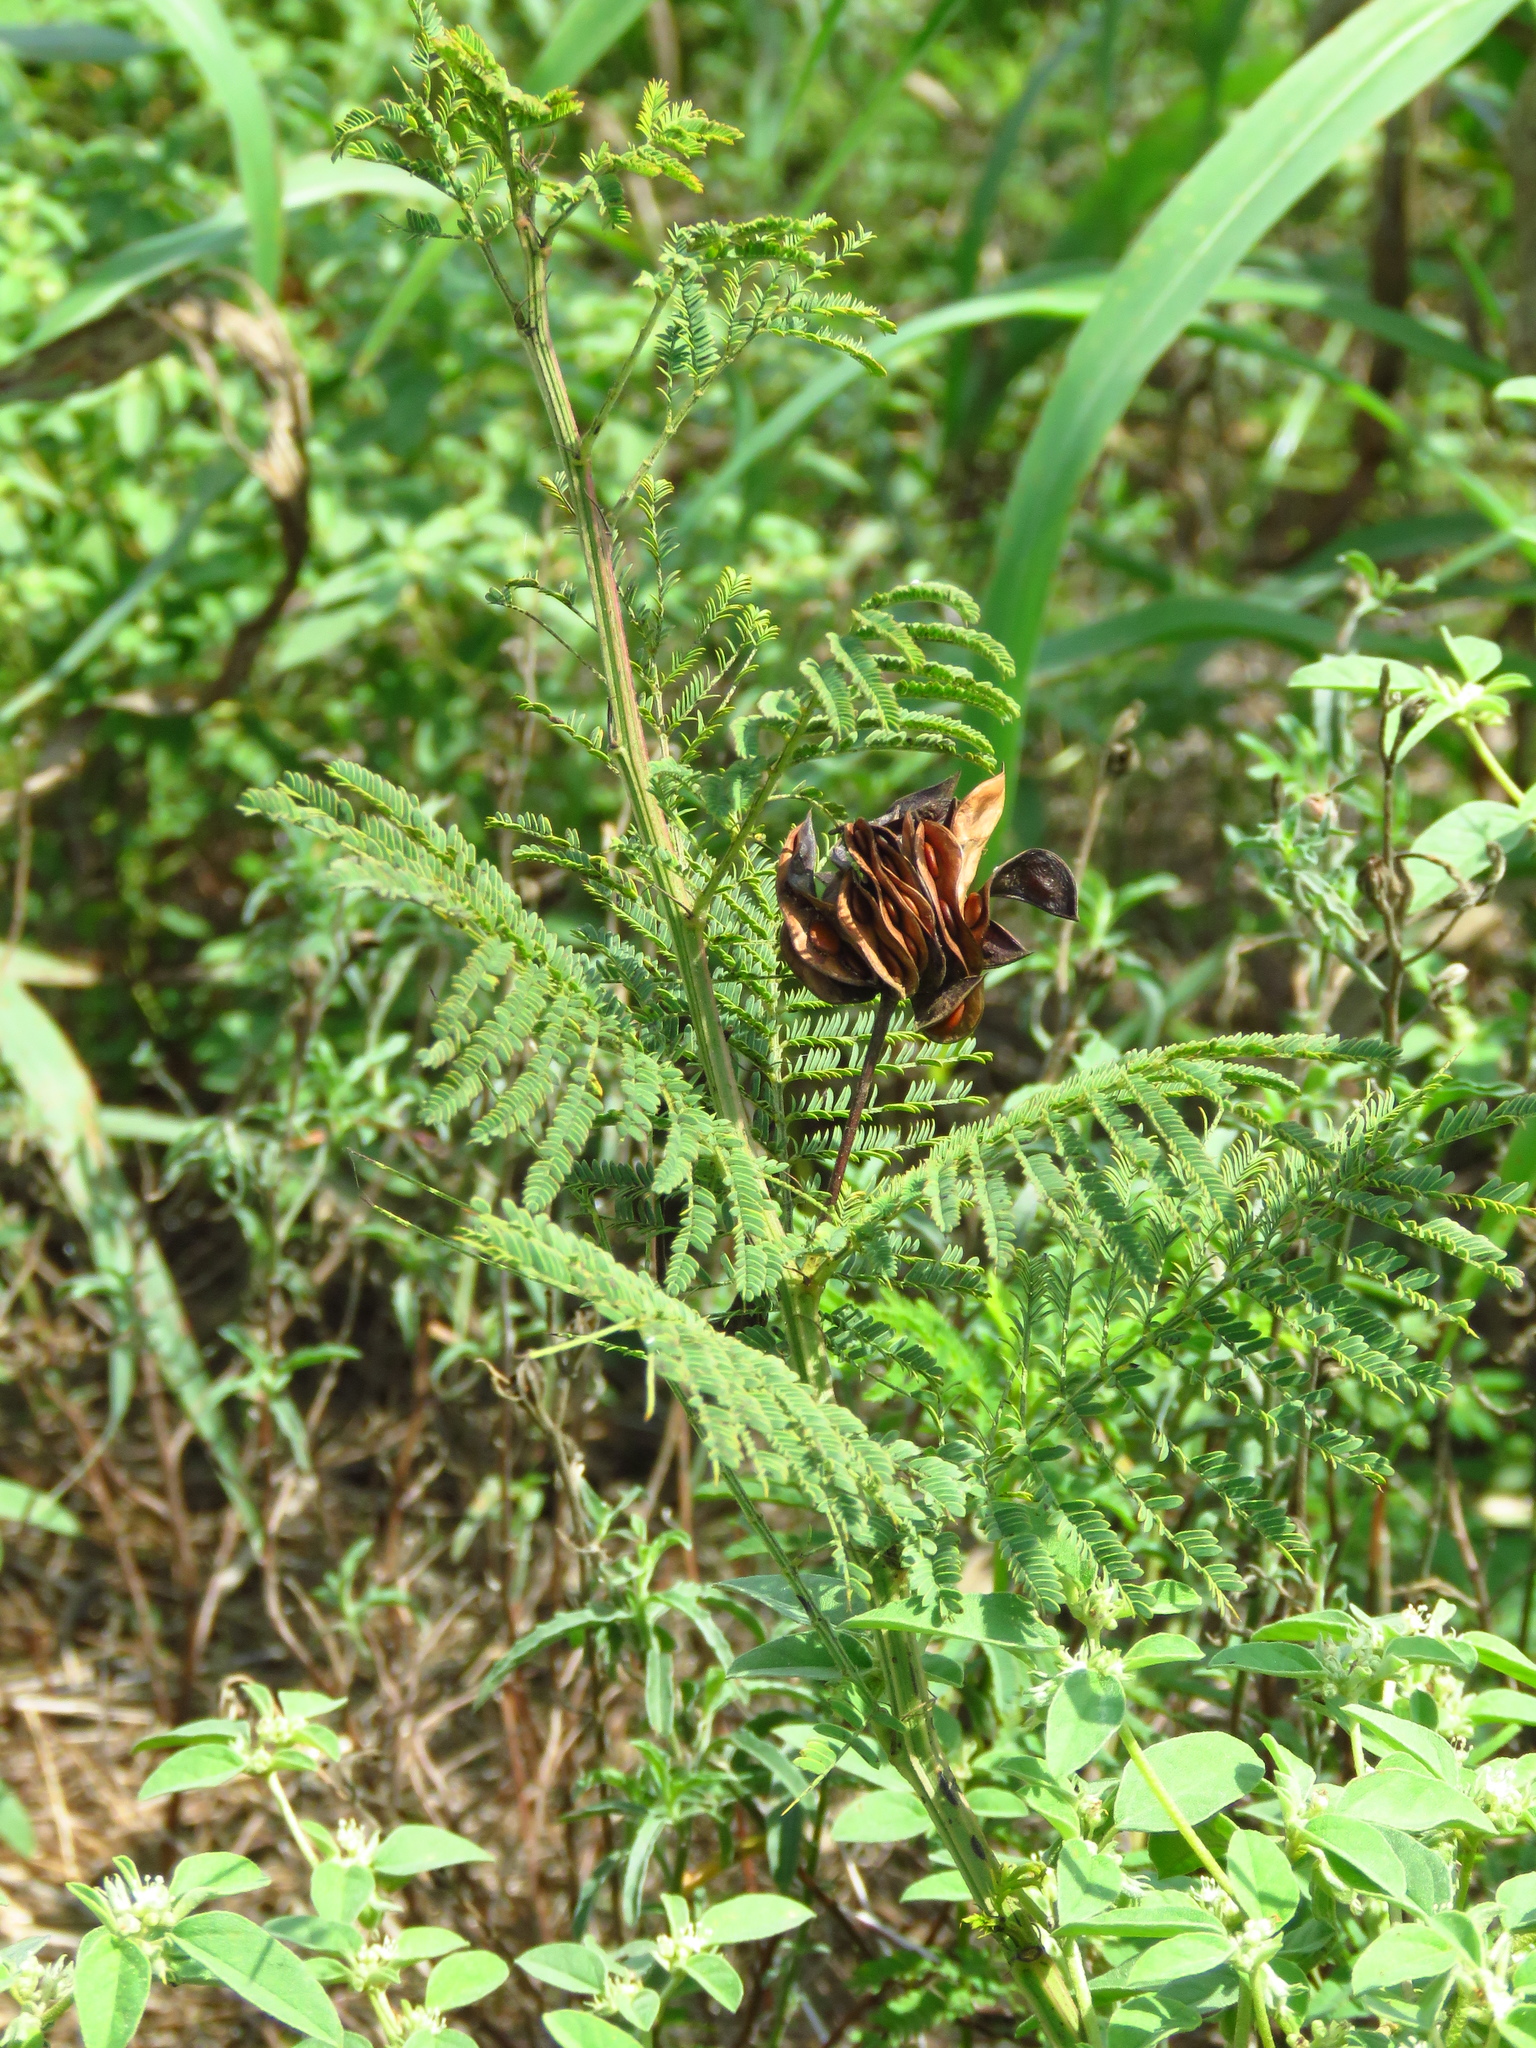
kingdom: Plantae
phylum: Tracheophyta
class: Magnoliopsida
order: Fabales
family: Fabaceae
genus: Desmanthus
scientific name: Desmanthus illinoensis
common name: Illinois bundle-flower
